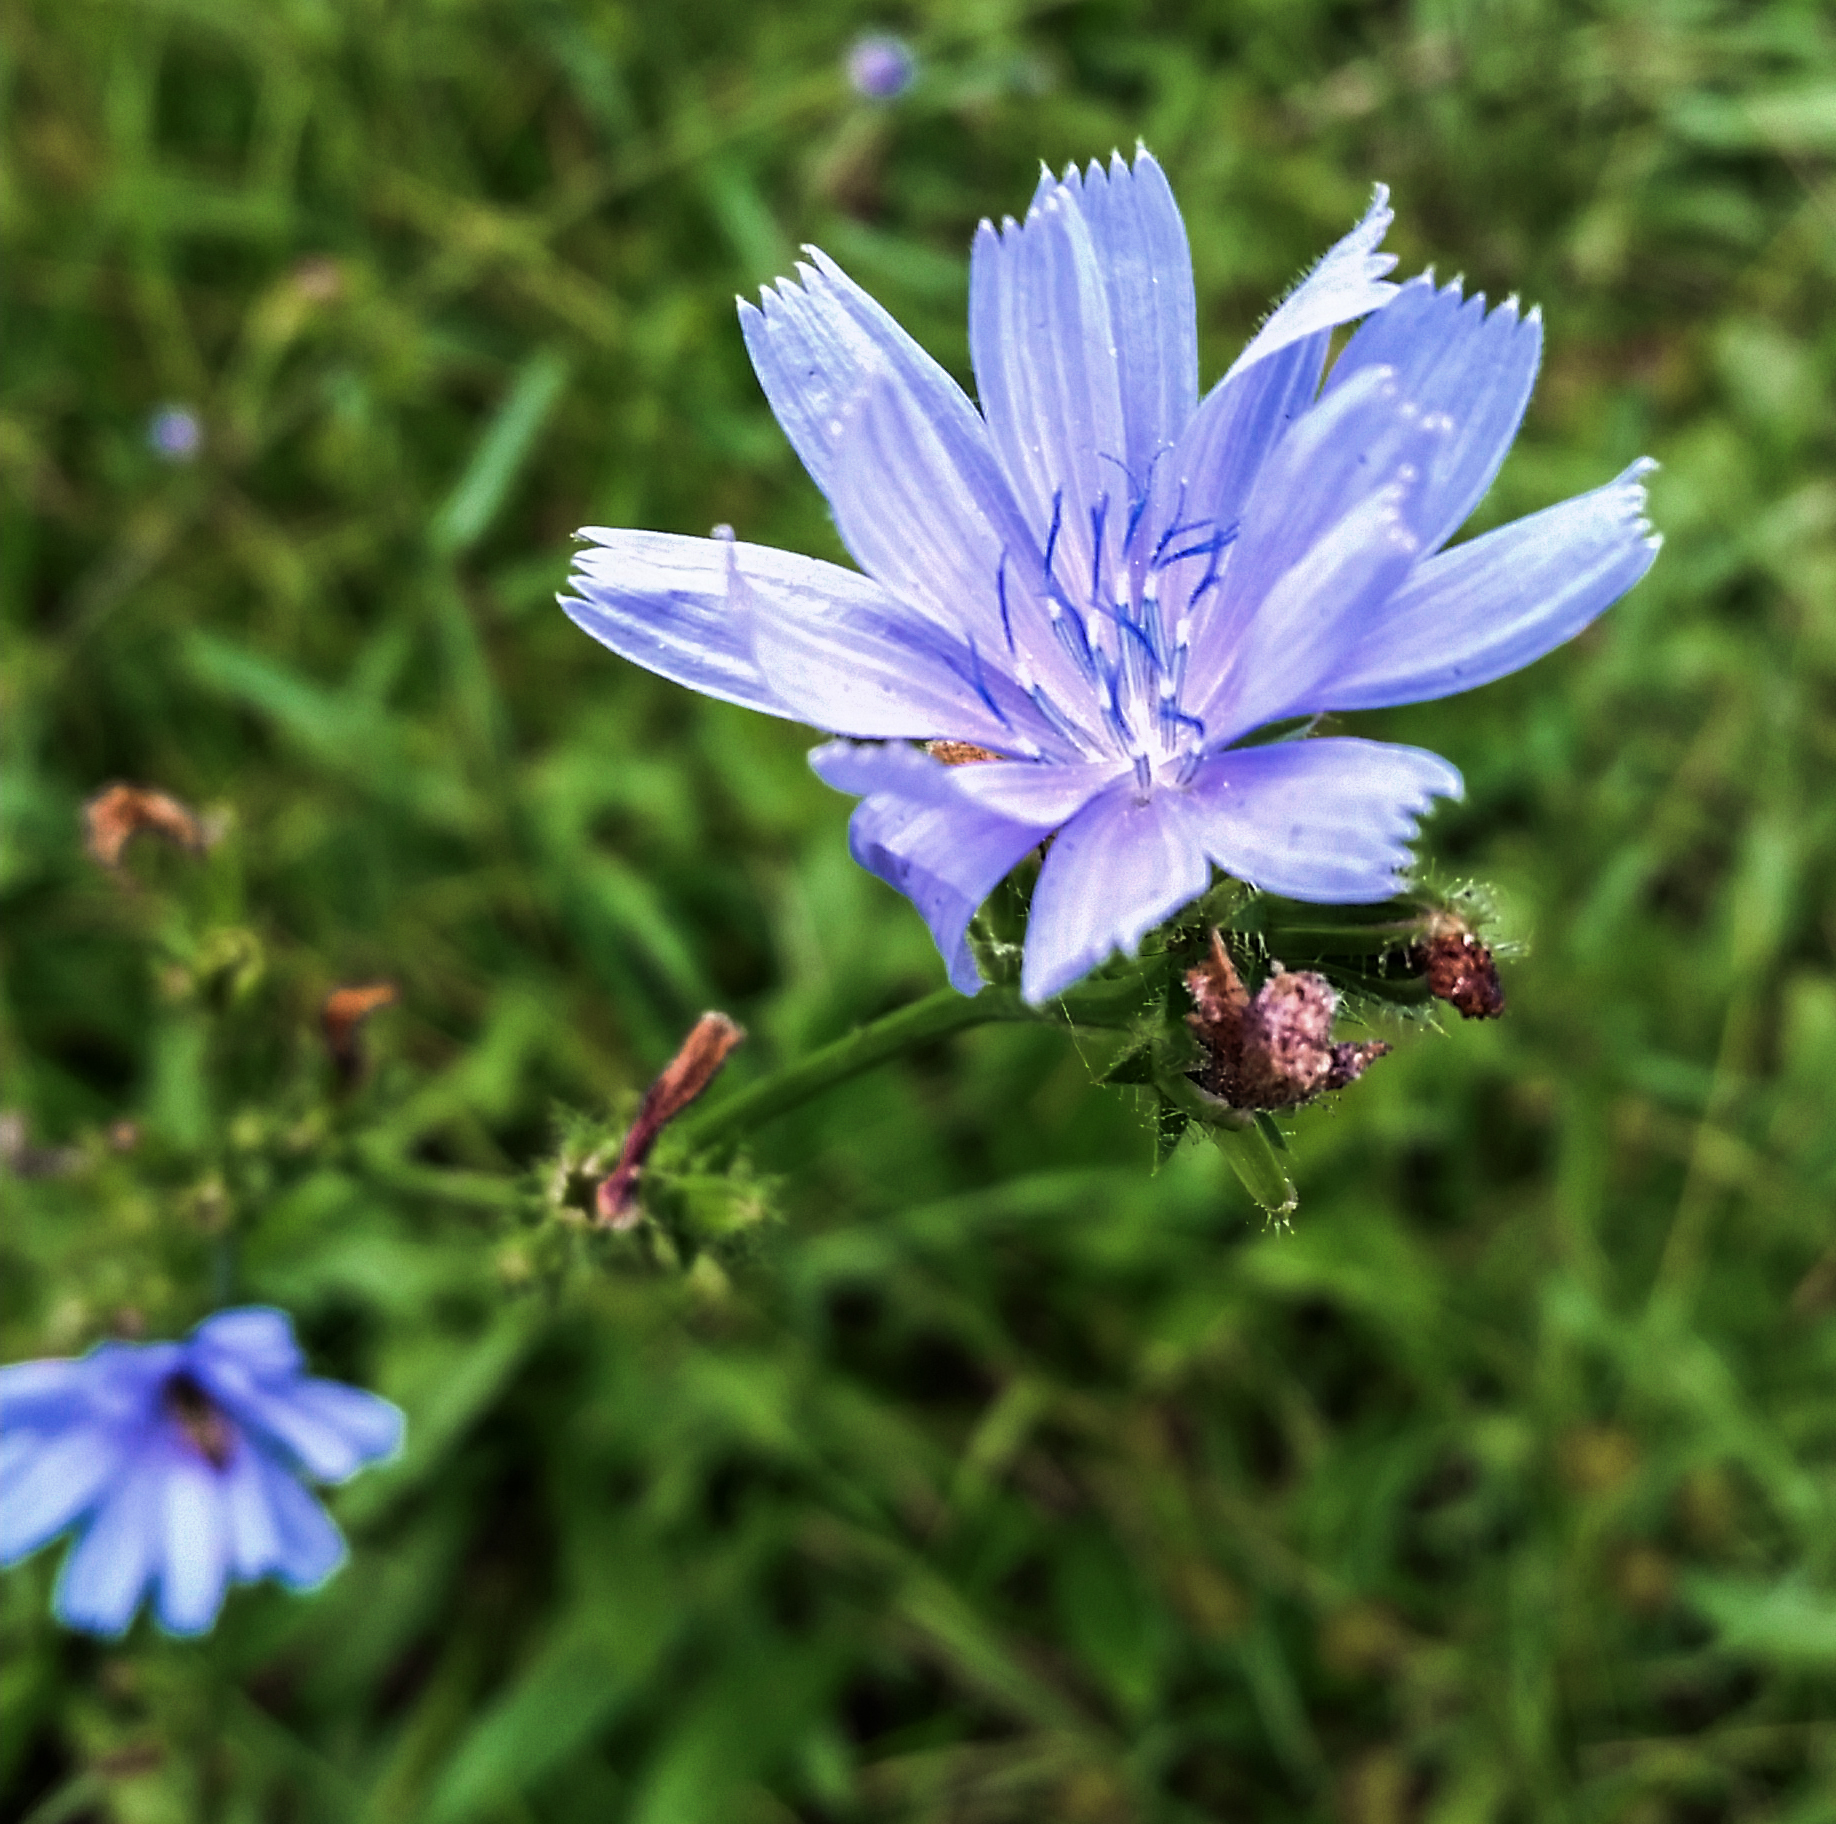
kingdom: Plantae
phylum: Tracheophyta
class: Magnoliopsida
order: Asterales
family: Asteraceae
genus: Cichorium
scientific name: Cichorium intybus
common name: Chicory
